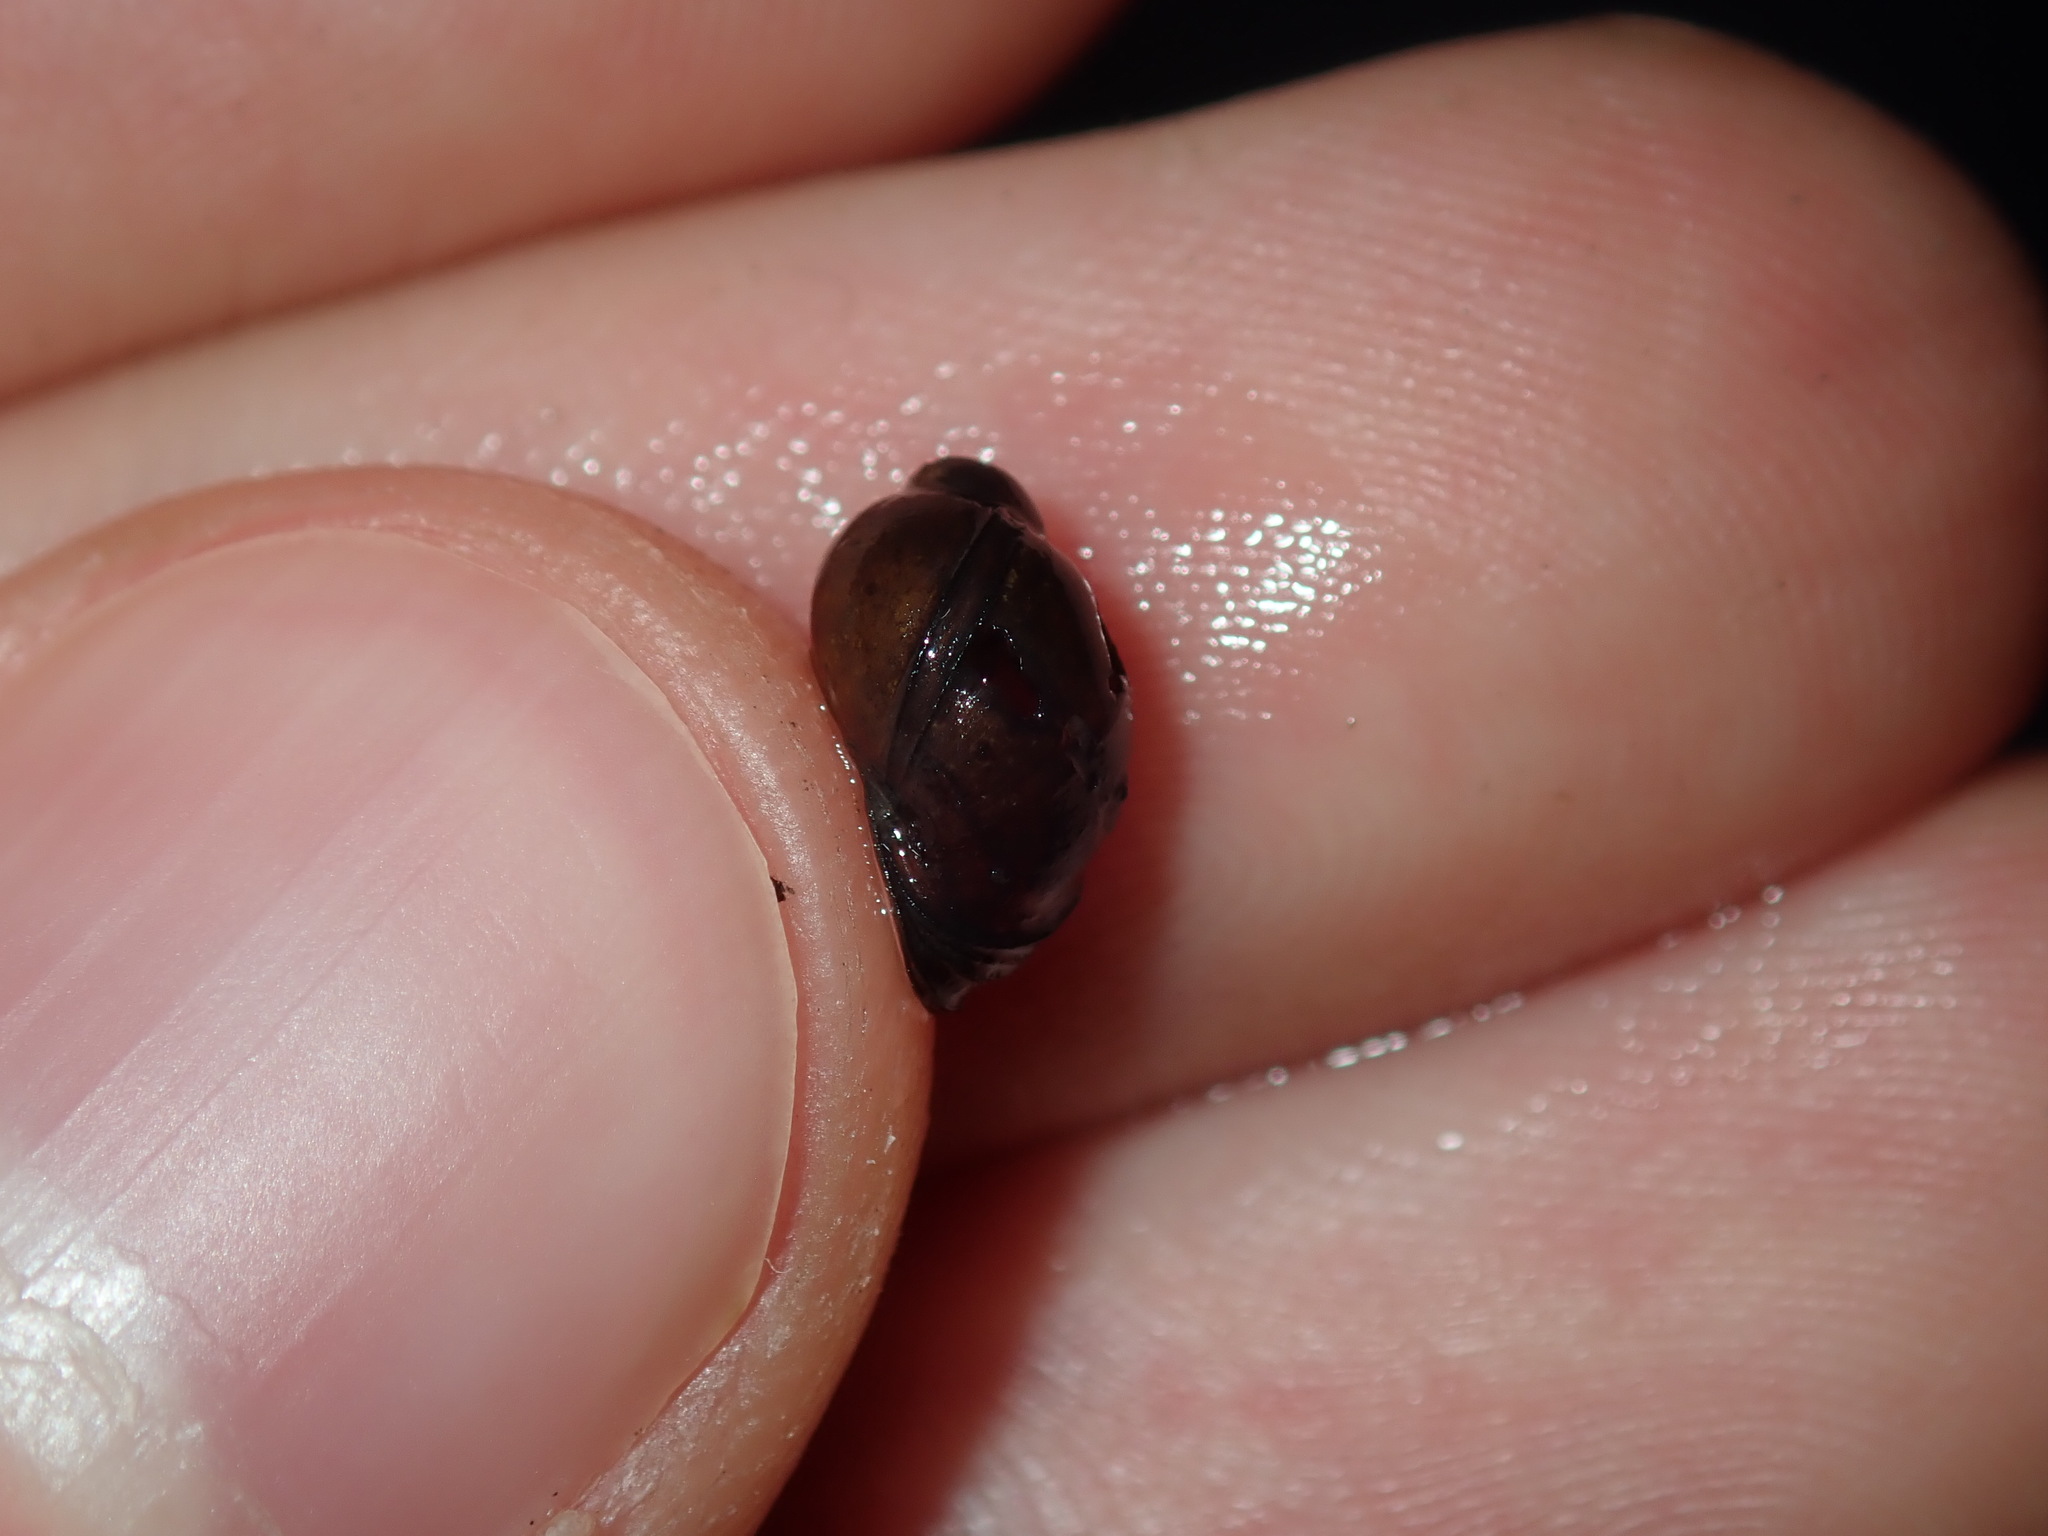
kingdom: Animalia
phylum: Mollusca
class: Gastropoda
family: Planorbidae
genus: Isidorella
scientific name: Isidorella hainesii
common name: Haine’s pouch snail
